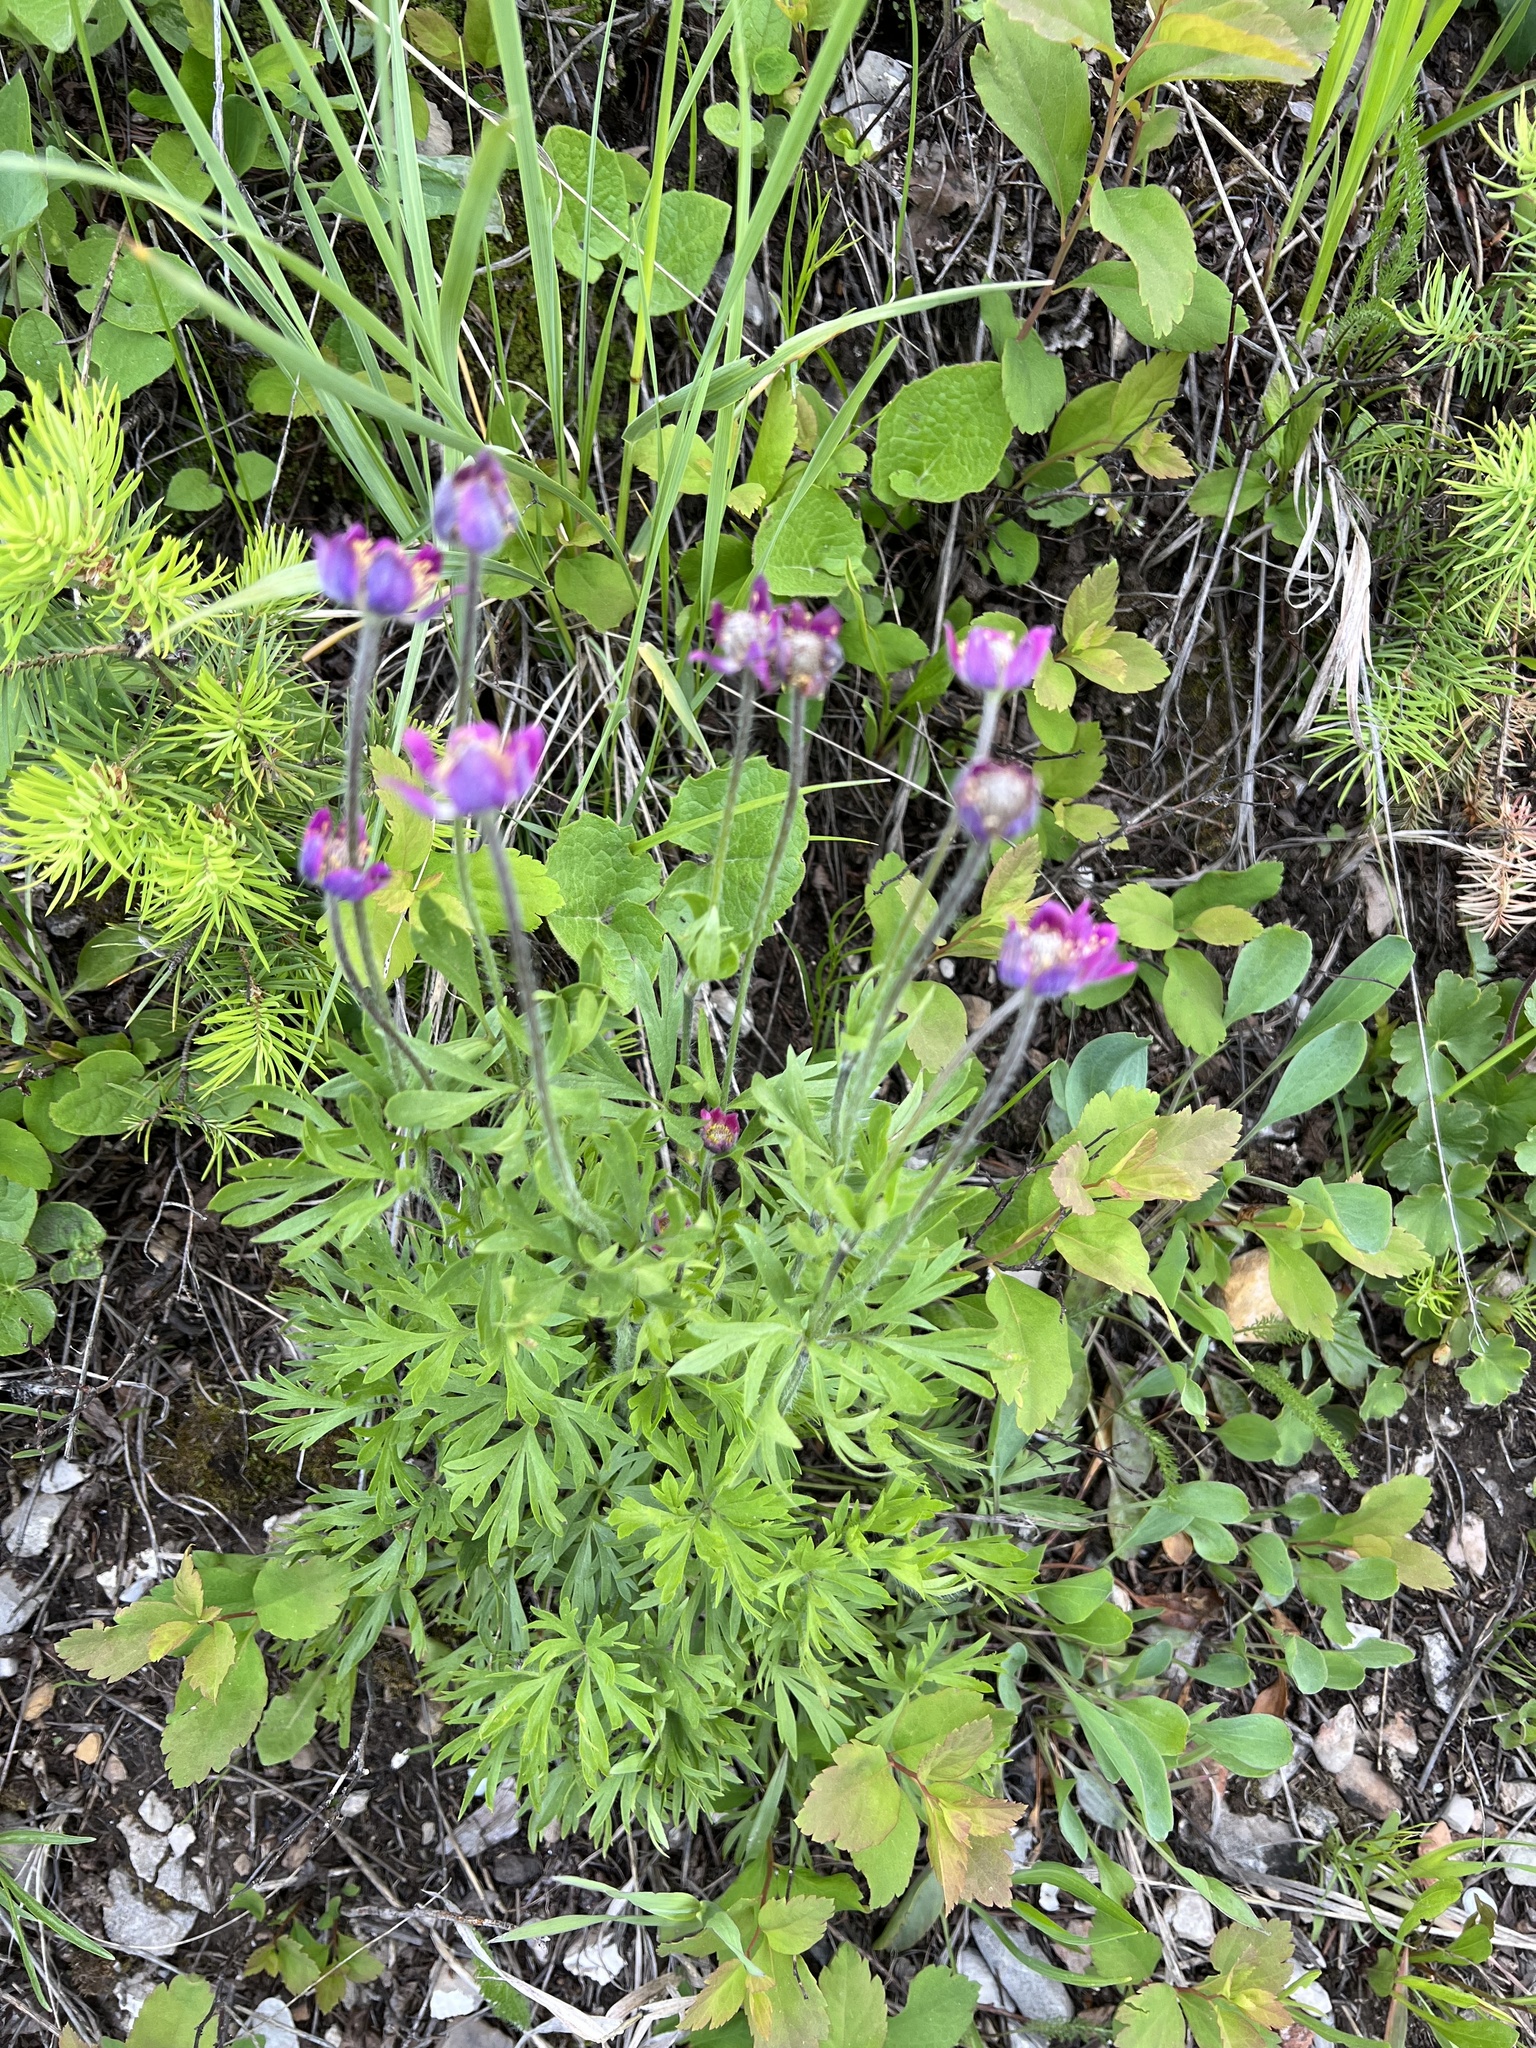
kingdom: Plantae
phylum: Tracheophyta
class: Magnoliopsida
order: Ranunculales
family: Ranunculaceae
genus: Anemone
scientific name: Anemone multifida
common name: Bird's-foot anemone
